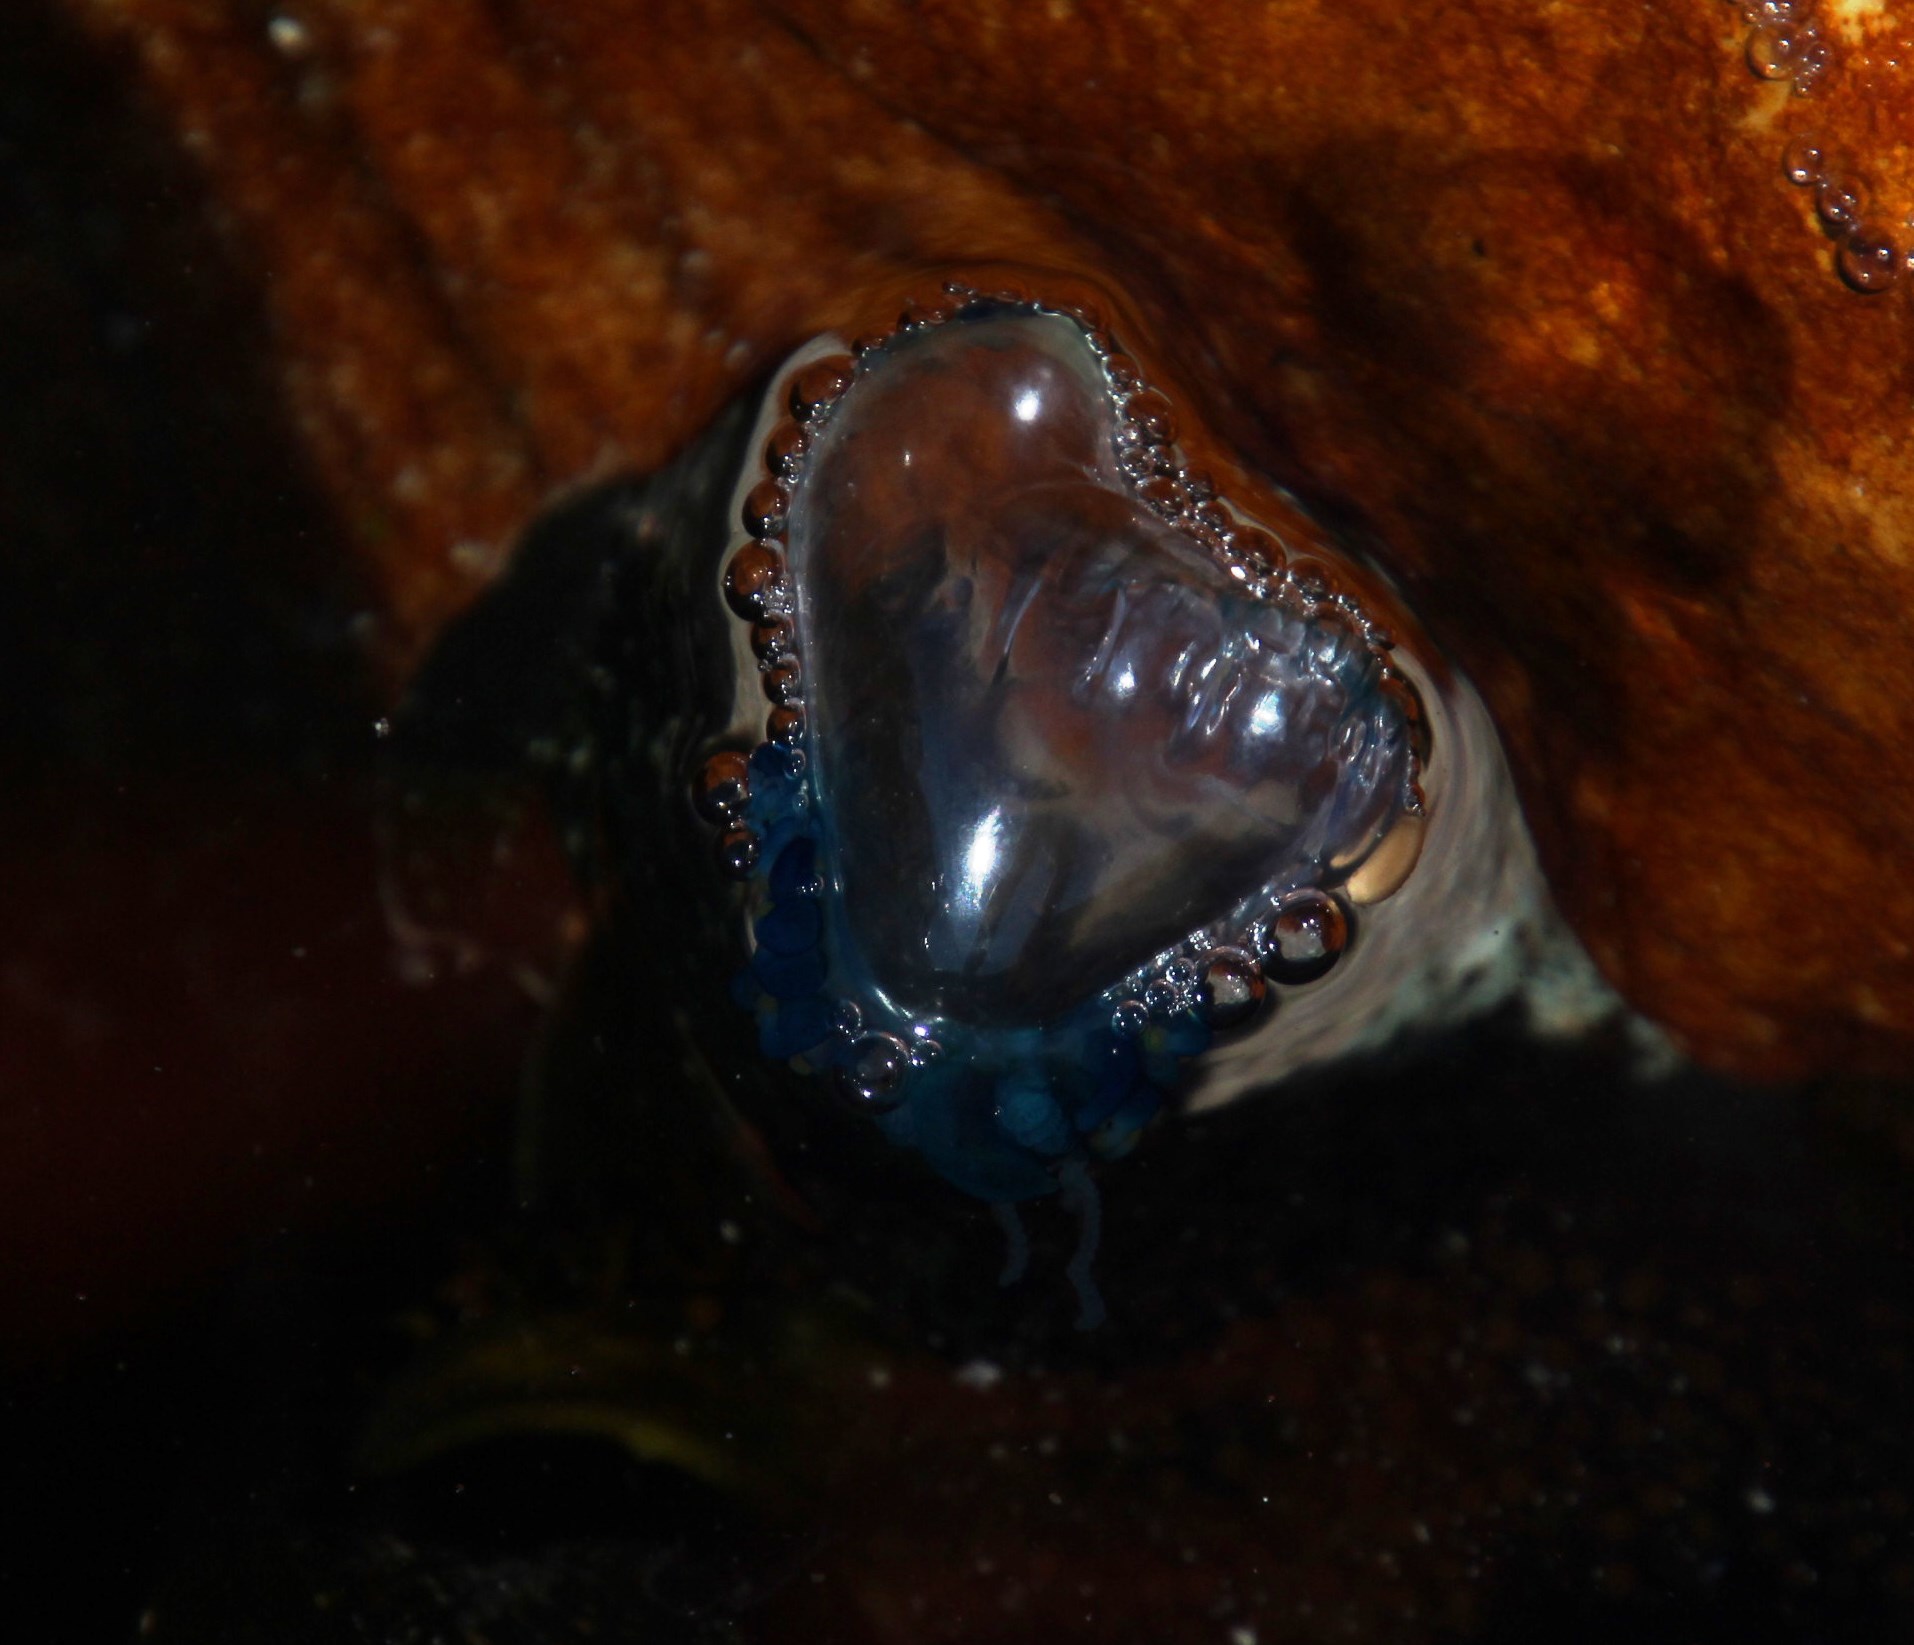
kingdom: Animalia
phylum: Cnidaria
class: Hydrozoa
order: Siphonophorae
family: Physaliidae
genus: Physalia
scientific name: Physalia physalis
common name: Portuguese man-of-war
